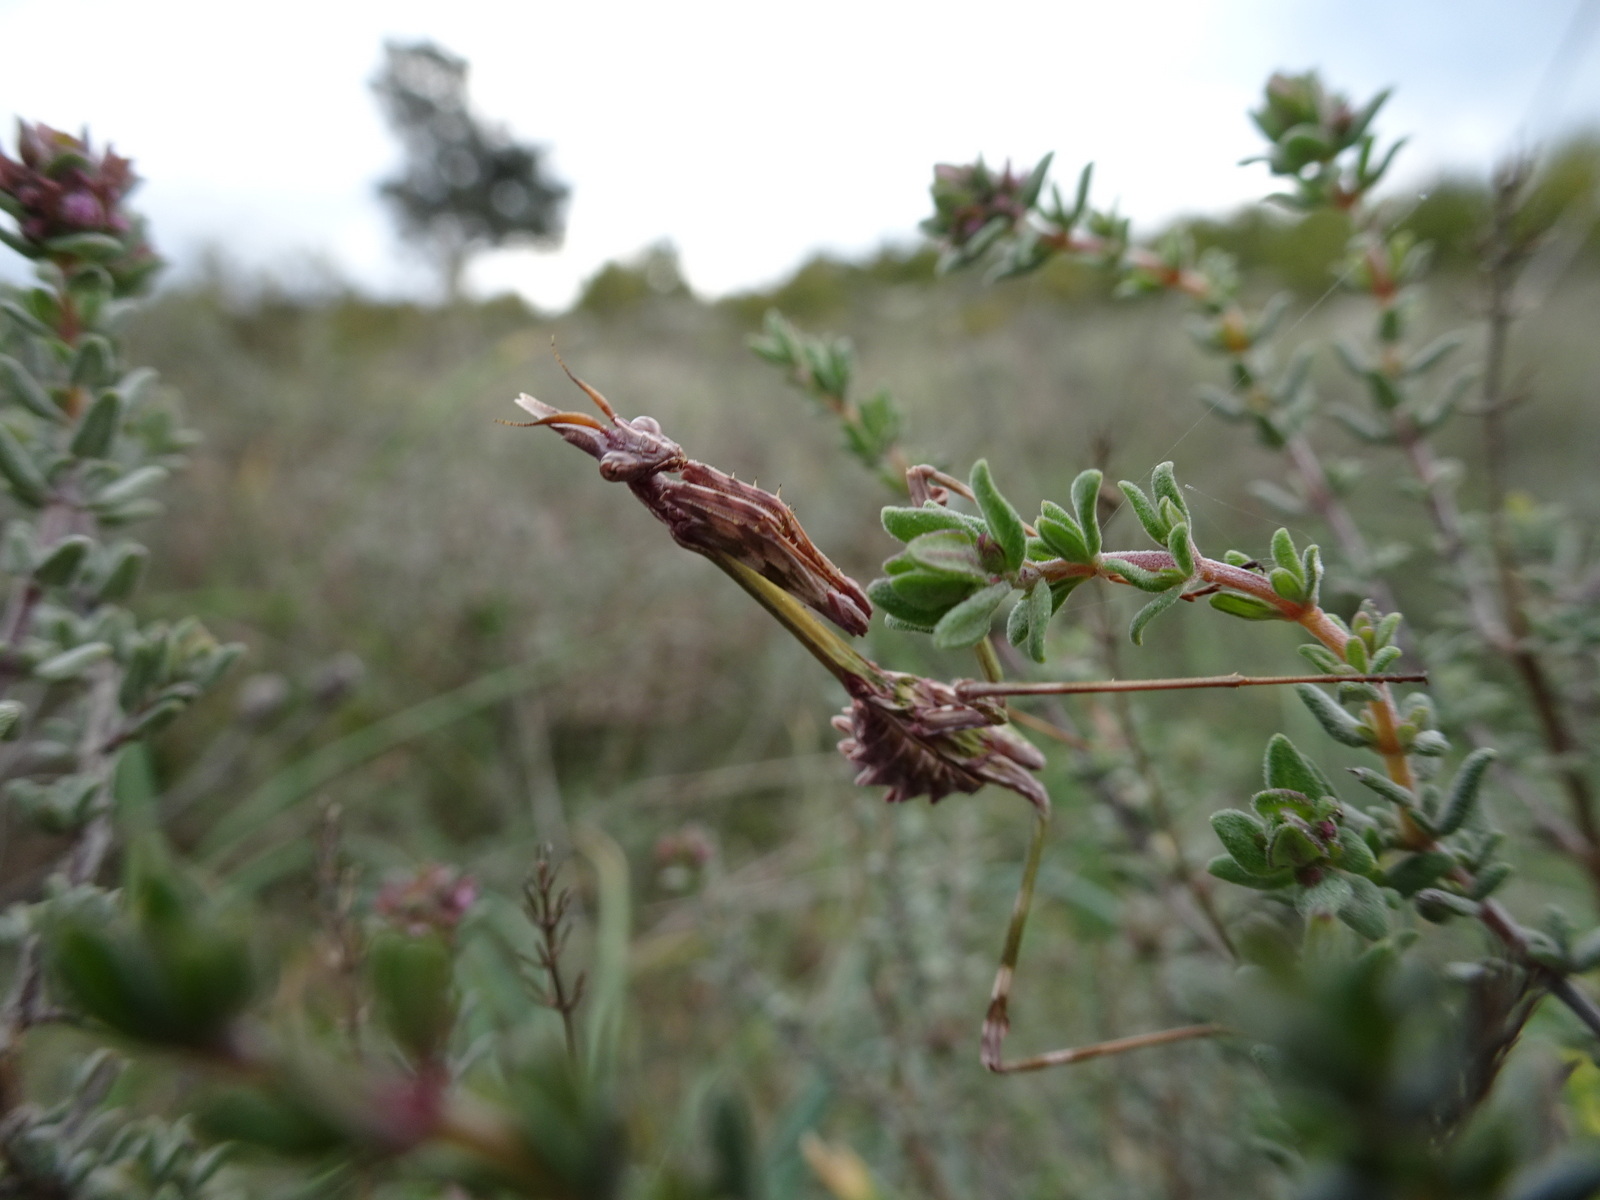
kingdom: Animalia
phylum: Arthropoda
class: Insecta
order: Mantodea
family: Empusidae
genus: Empusa
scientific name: Empusa pennata
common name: Conehead mantis
